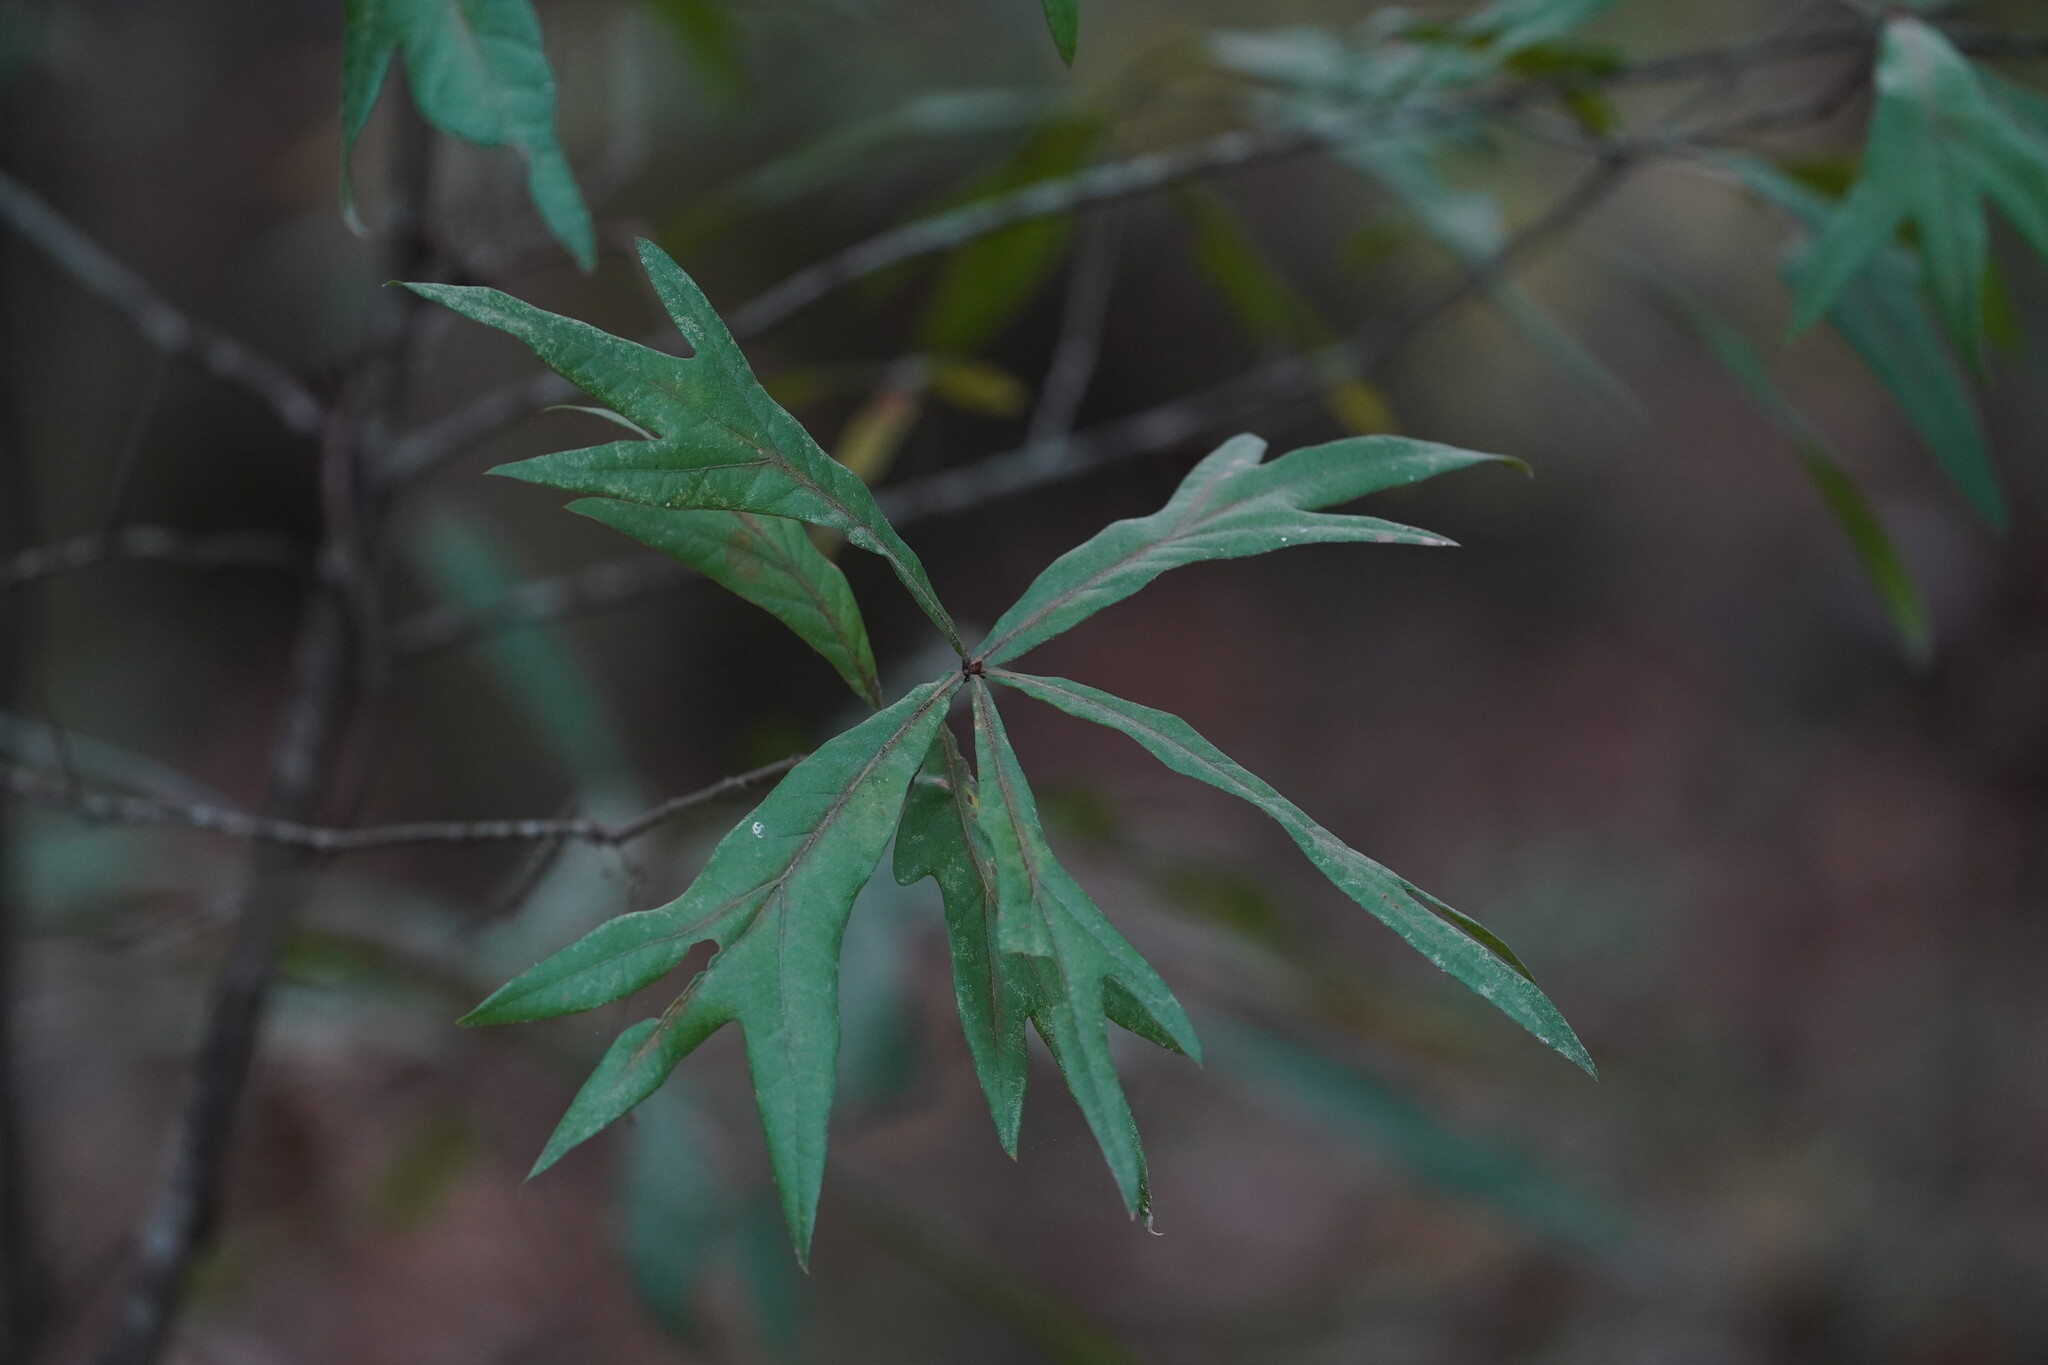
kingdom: Plantae
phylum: Tracheophyta
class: Magnoliopsida
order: Fagales
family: Fagaceae
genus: Quercus
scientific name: Quercus nigra
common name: Water oak
